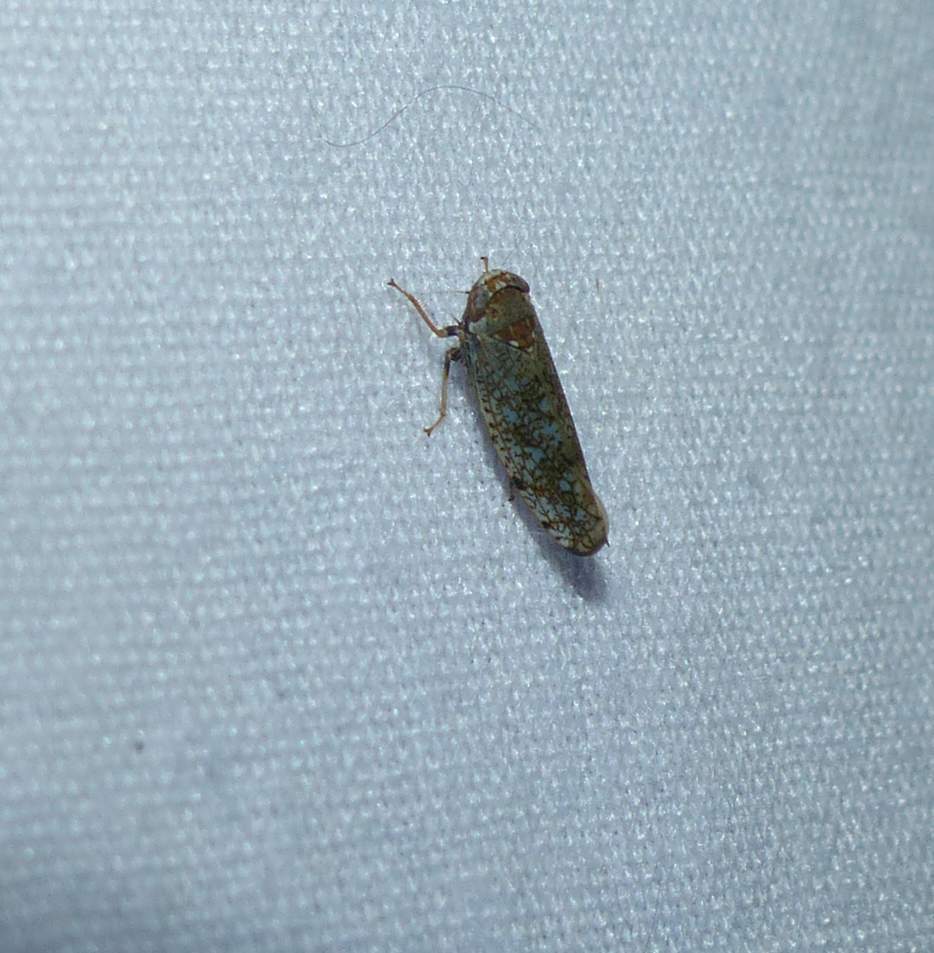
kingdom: Animalia
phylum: Arthropoda
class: Insecta
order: Hemiptera
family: Cicadellidae
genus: Orientus
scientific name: Orientus ishidae
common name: Japanese leafhopper
